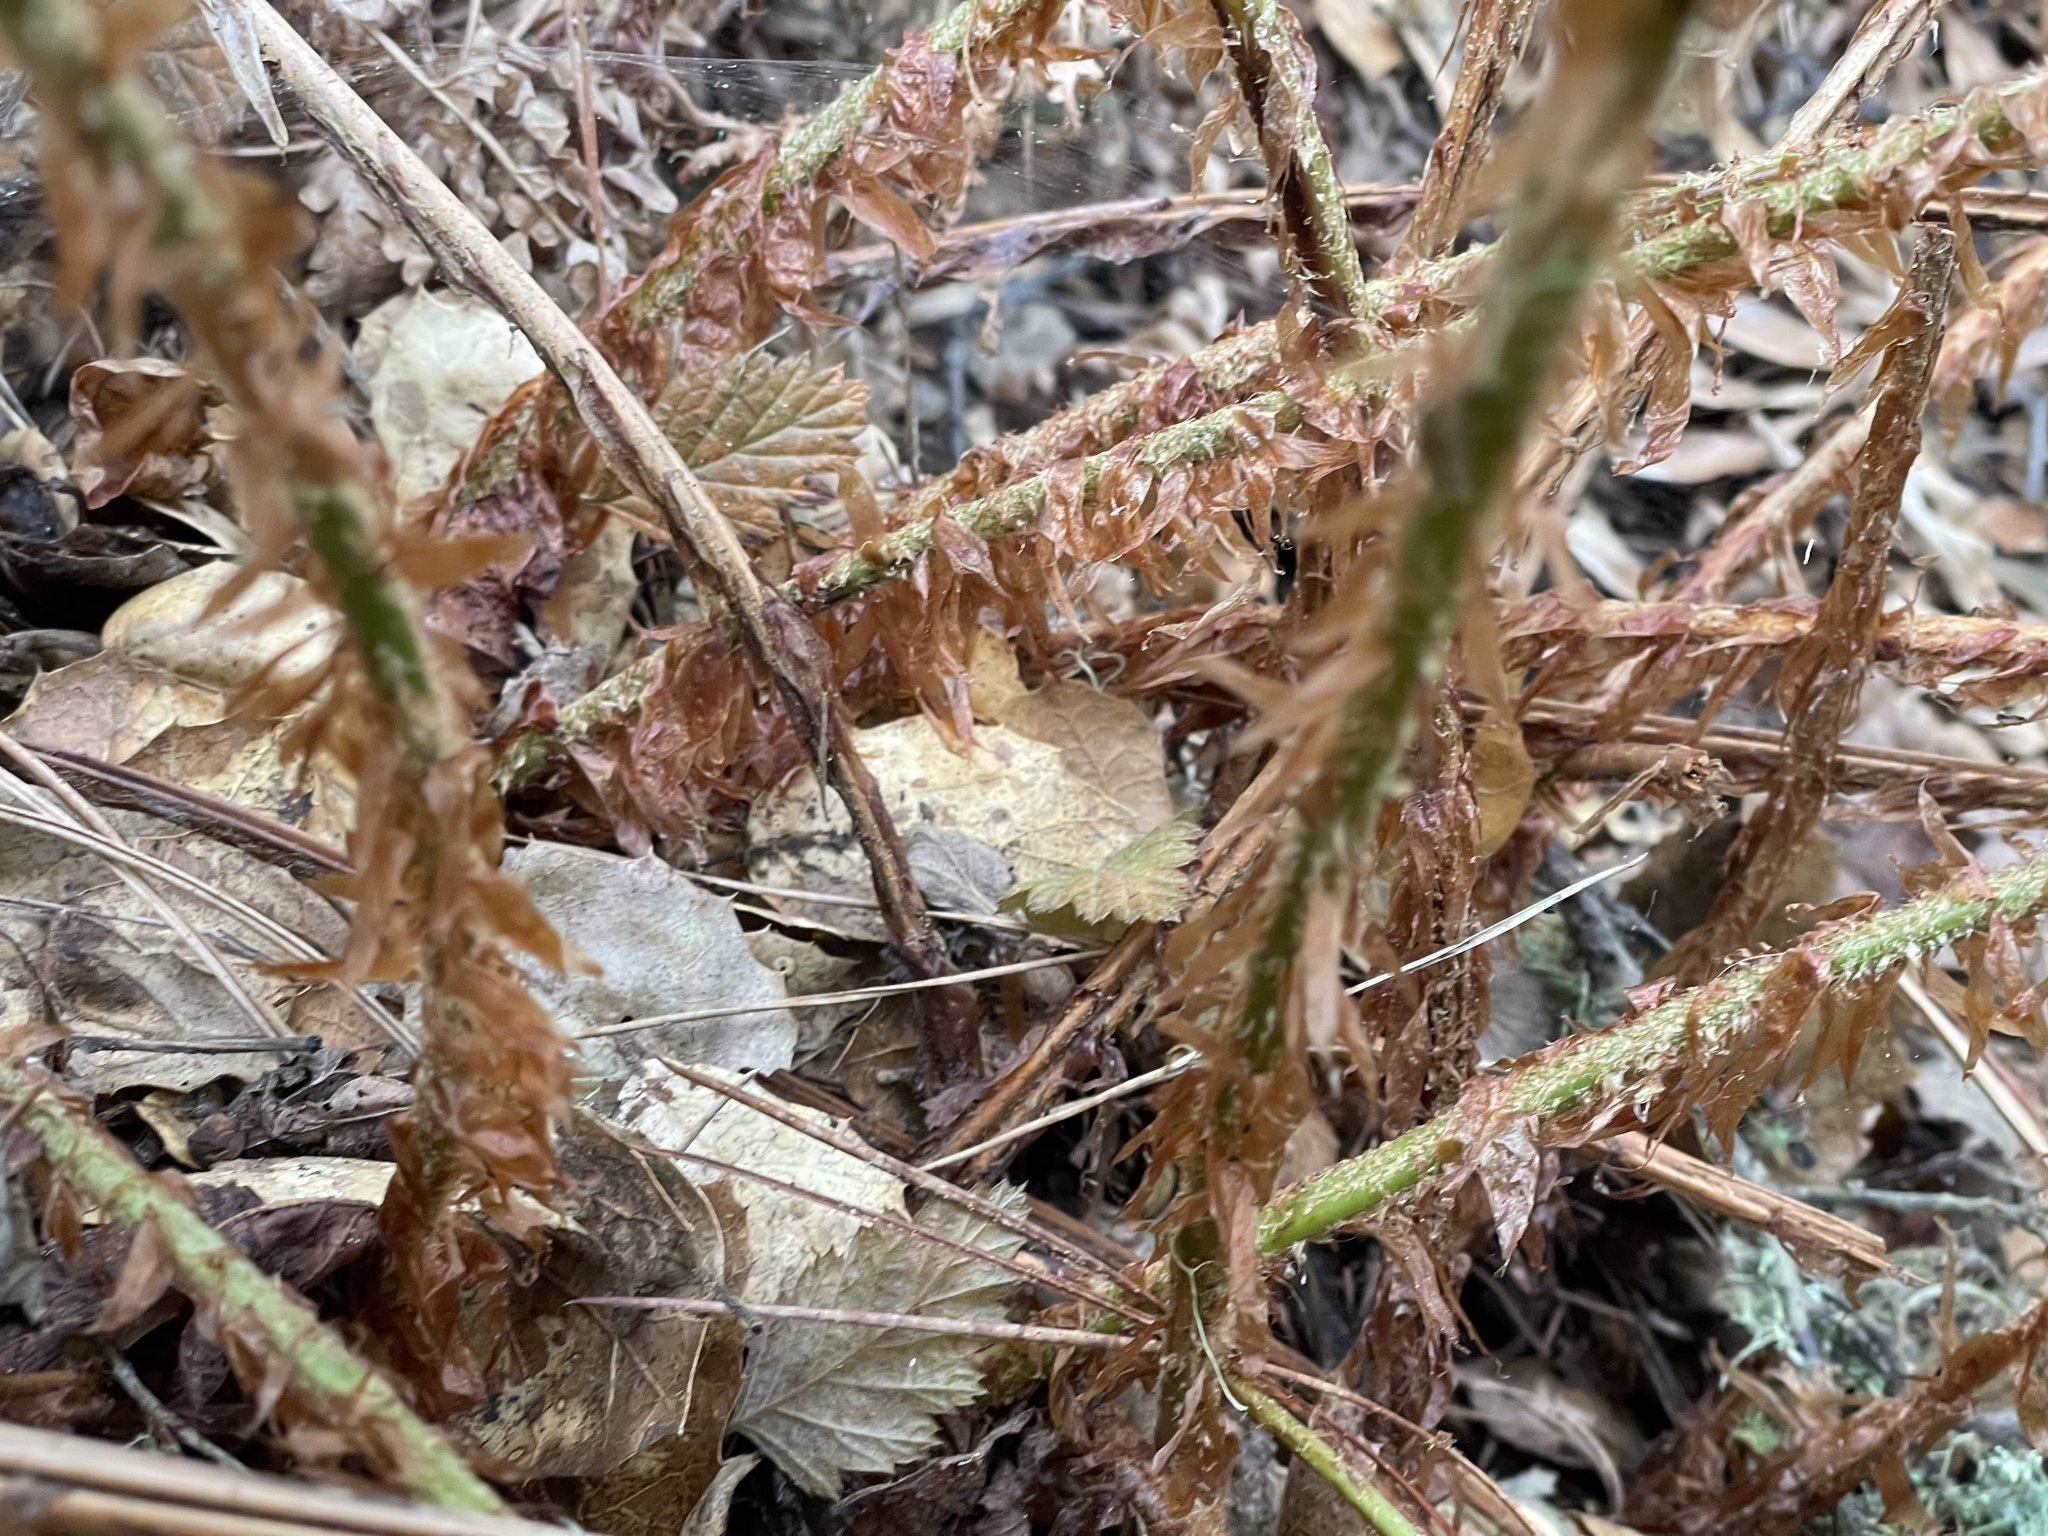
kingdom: Plantae
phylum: Tracheophyta
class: Polypodiopsida
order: Polypodiales
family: Dryopteridaceae
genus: Polystichum
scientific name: Polystichum munitum
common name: Western sword-fern
